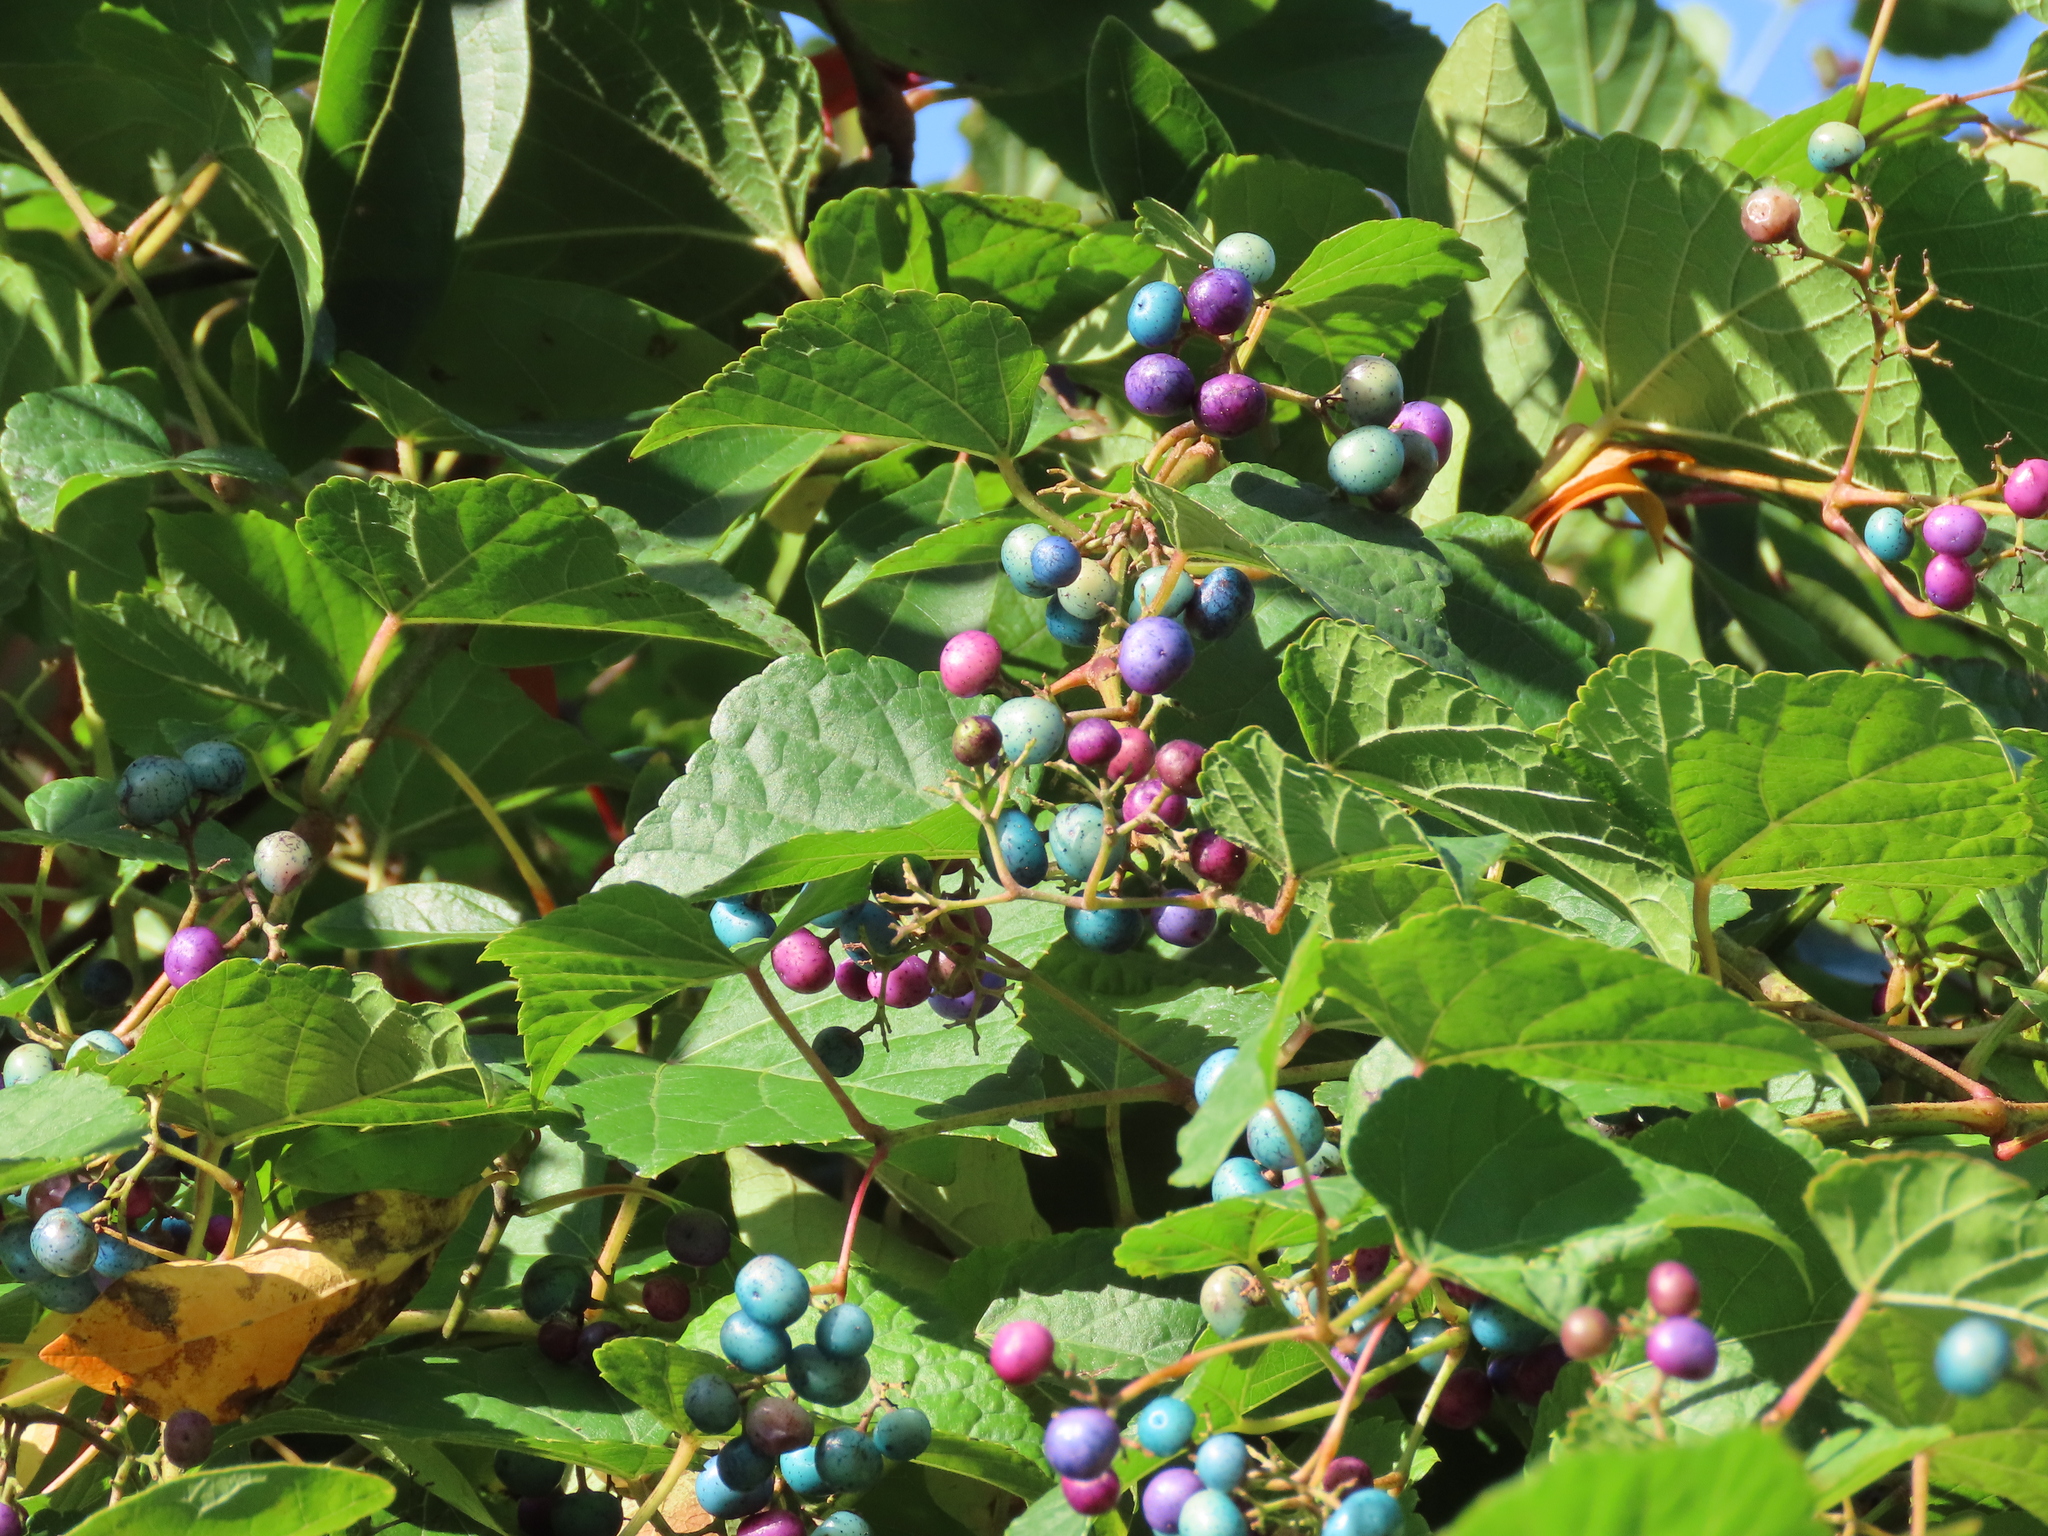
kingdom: Plantae
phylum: Tracheophyta
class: Magnoliopsida
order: Vitales
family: Vitaceae
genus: Ampelopsis
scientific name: Ampelopsis glandulosa
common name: Amur peppervine
